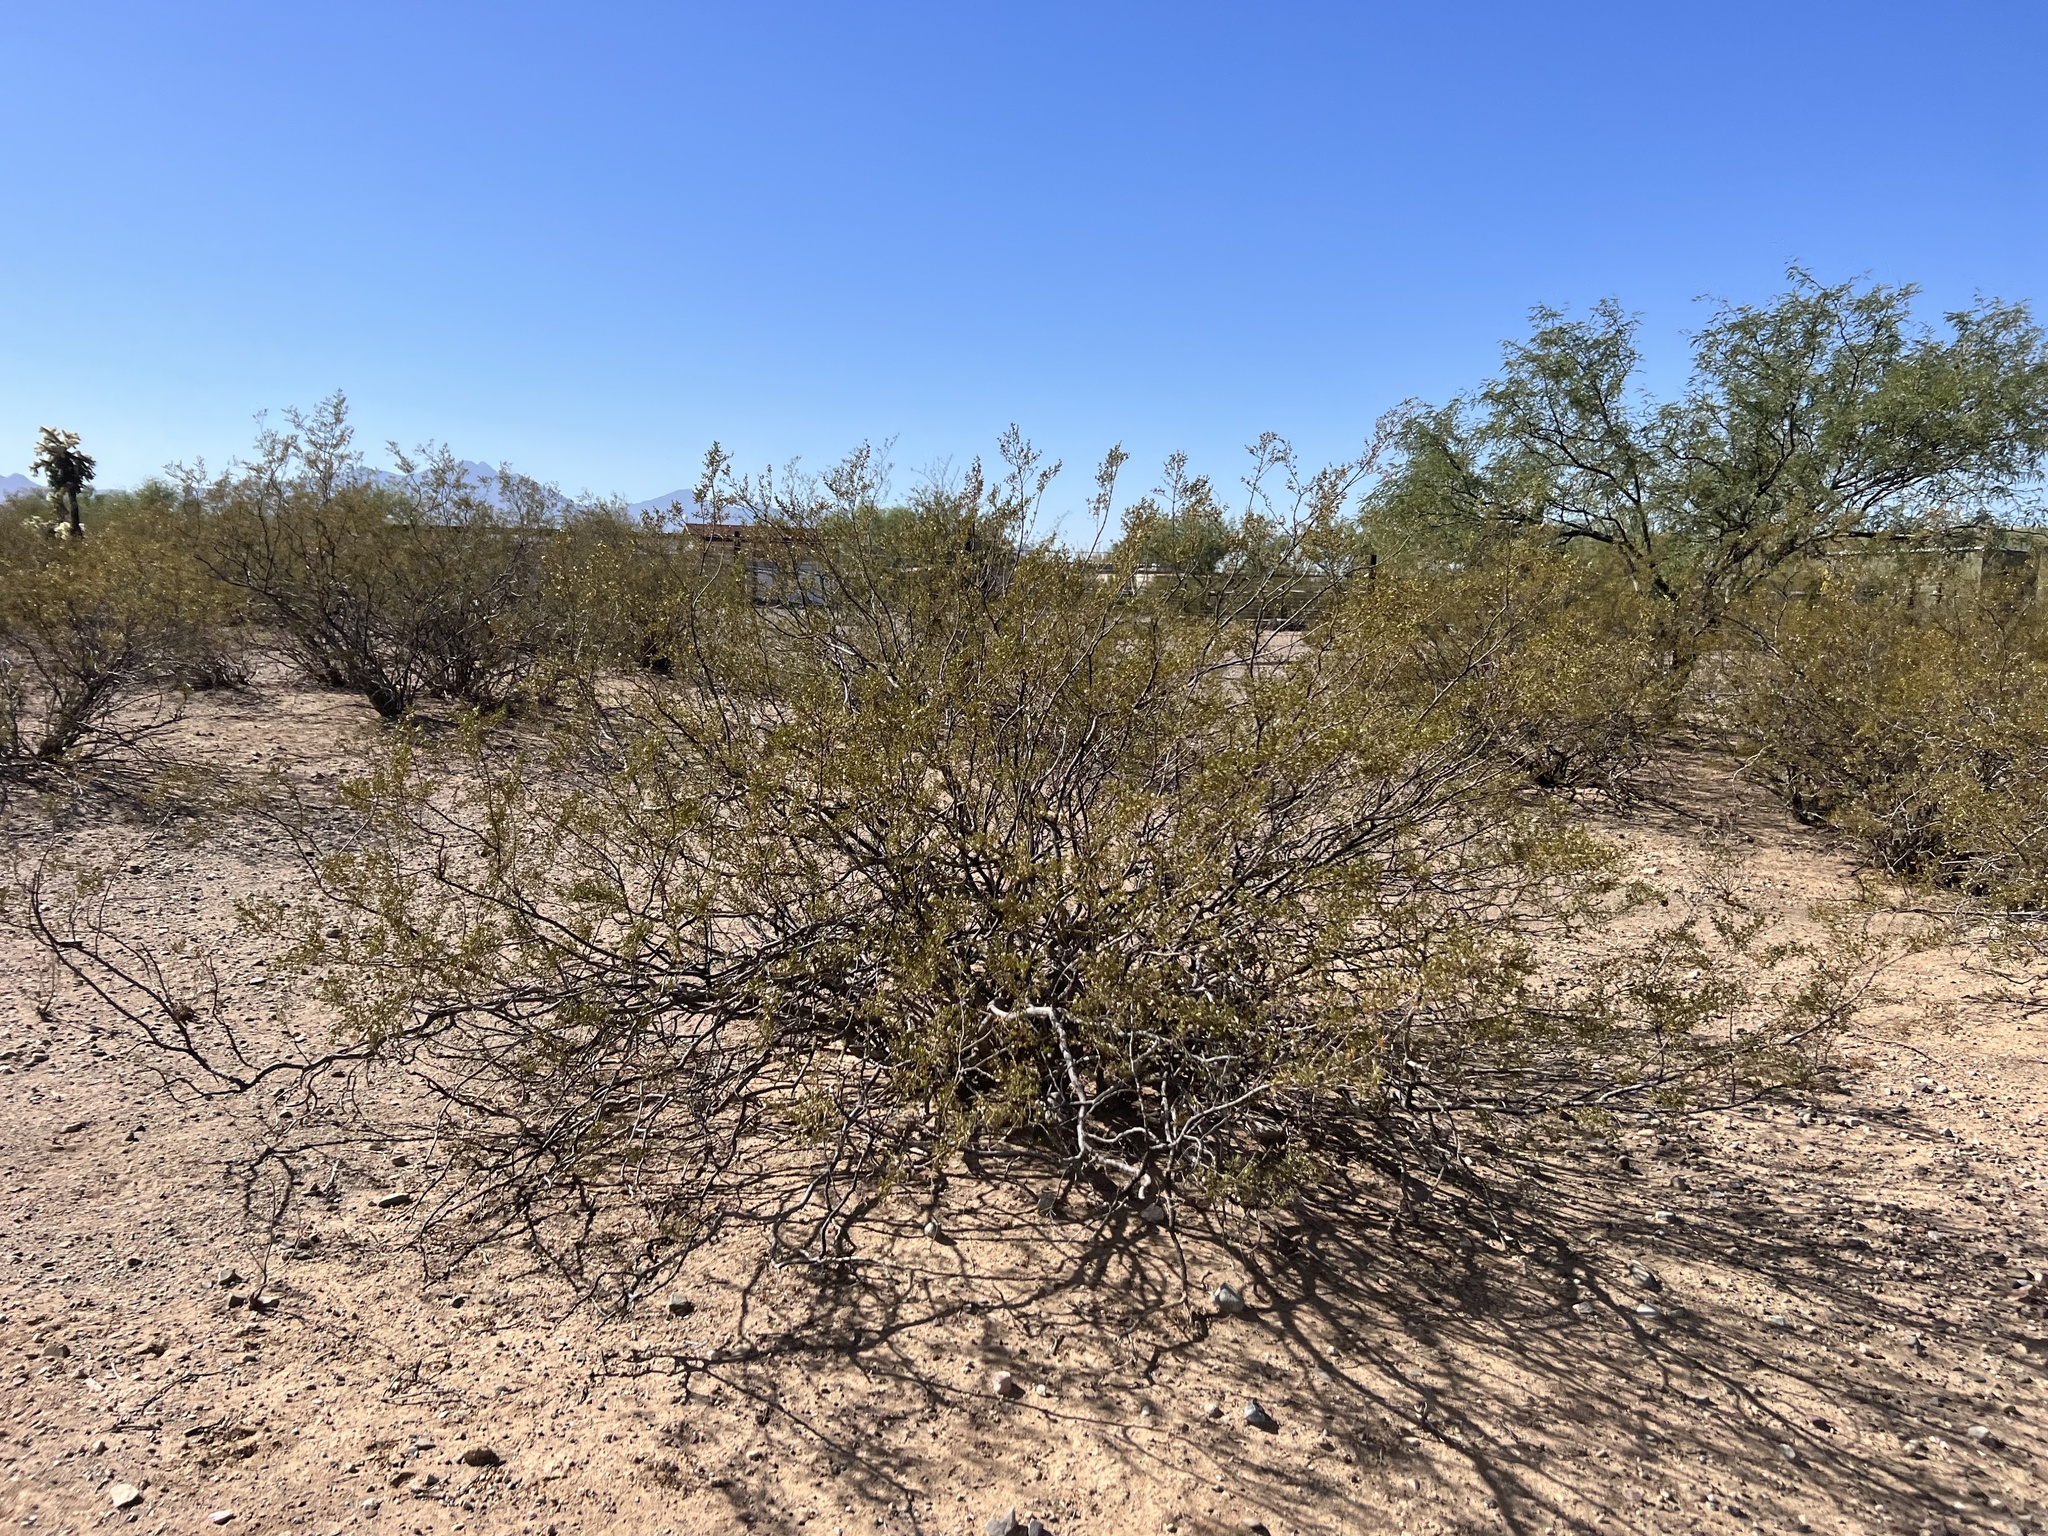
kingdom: Plantae
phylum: Tracheophyta
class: Magnoliopsida
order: Zygophyllales
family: Zygophyllaceae
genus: Larrea
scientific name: Larrea tridentata
